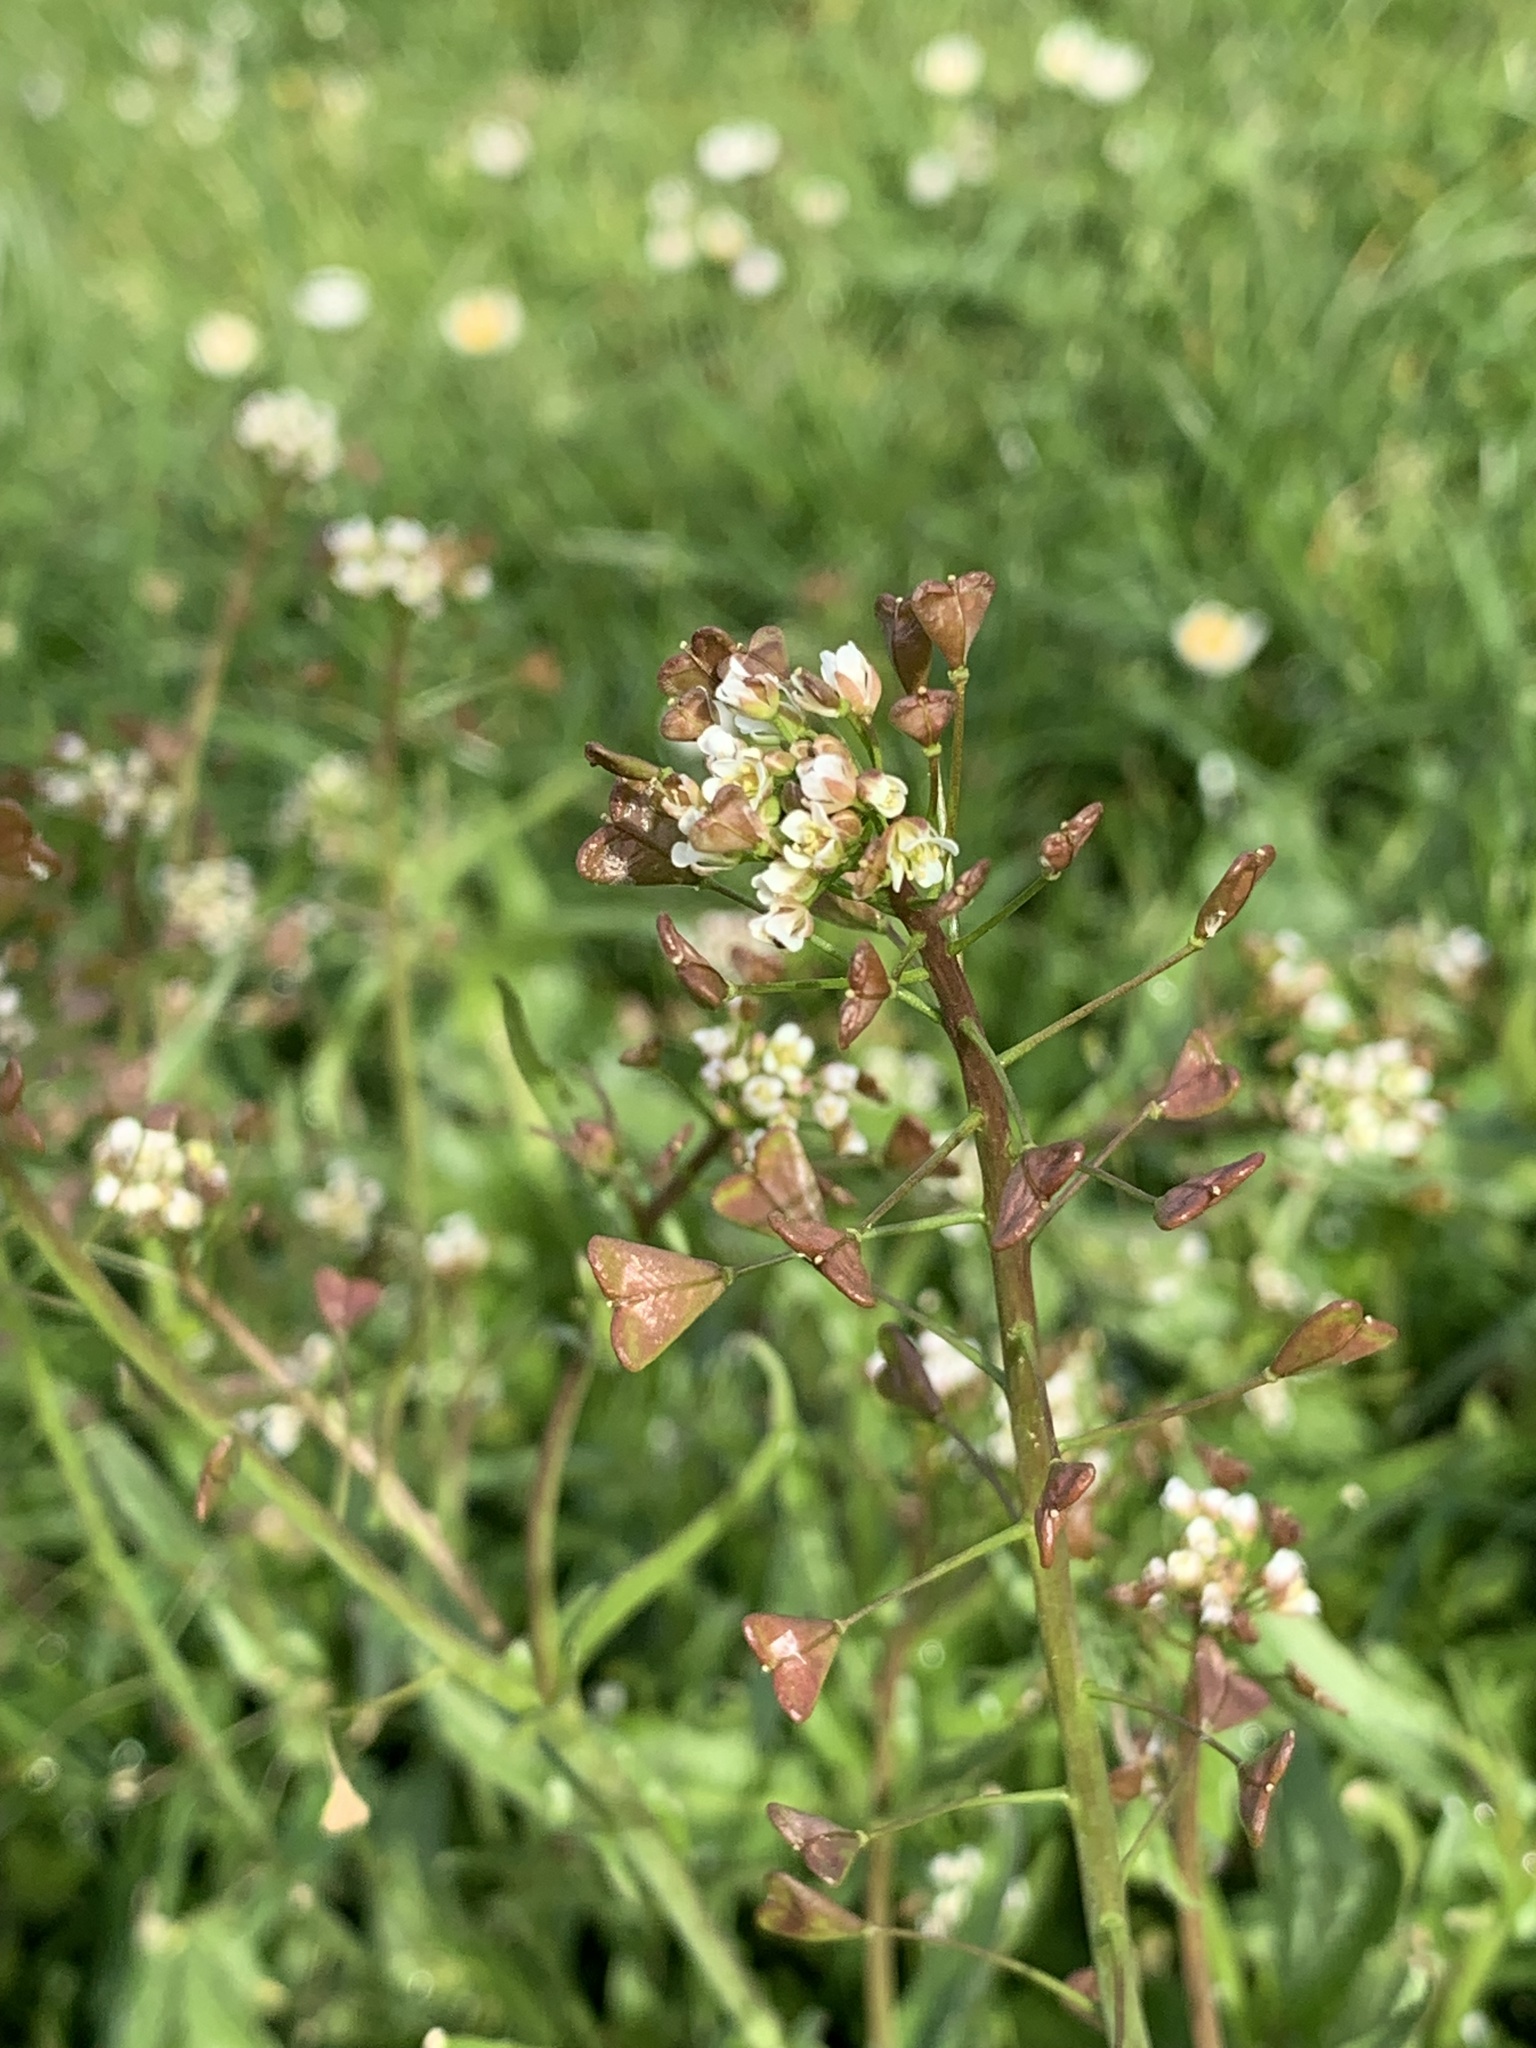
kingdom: Plantae
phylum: Tracheophyta
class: Magnoliopsida
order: Brassicales
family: Brassicaceae
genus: Capsella
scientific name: Capsella bursa-pastoris
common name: Shepherd's purse
